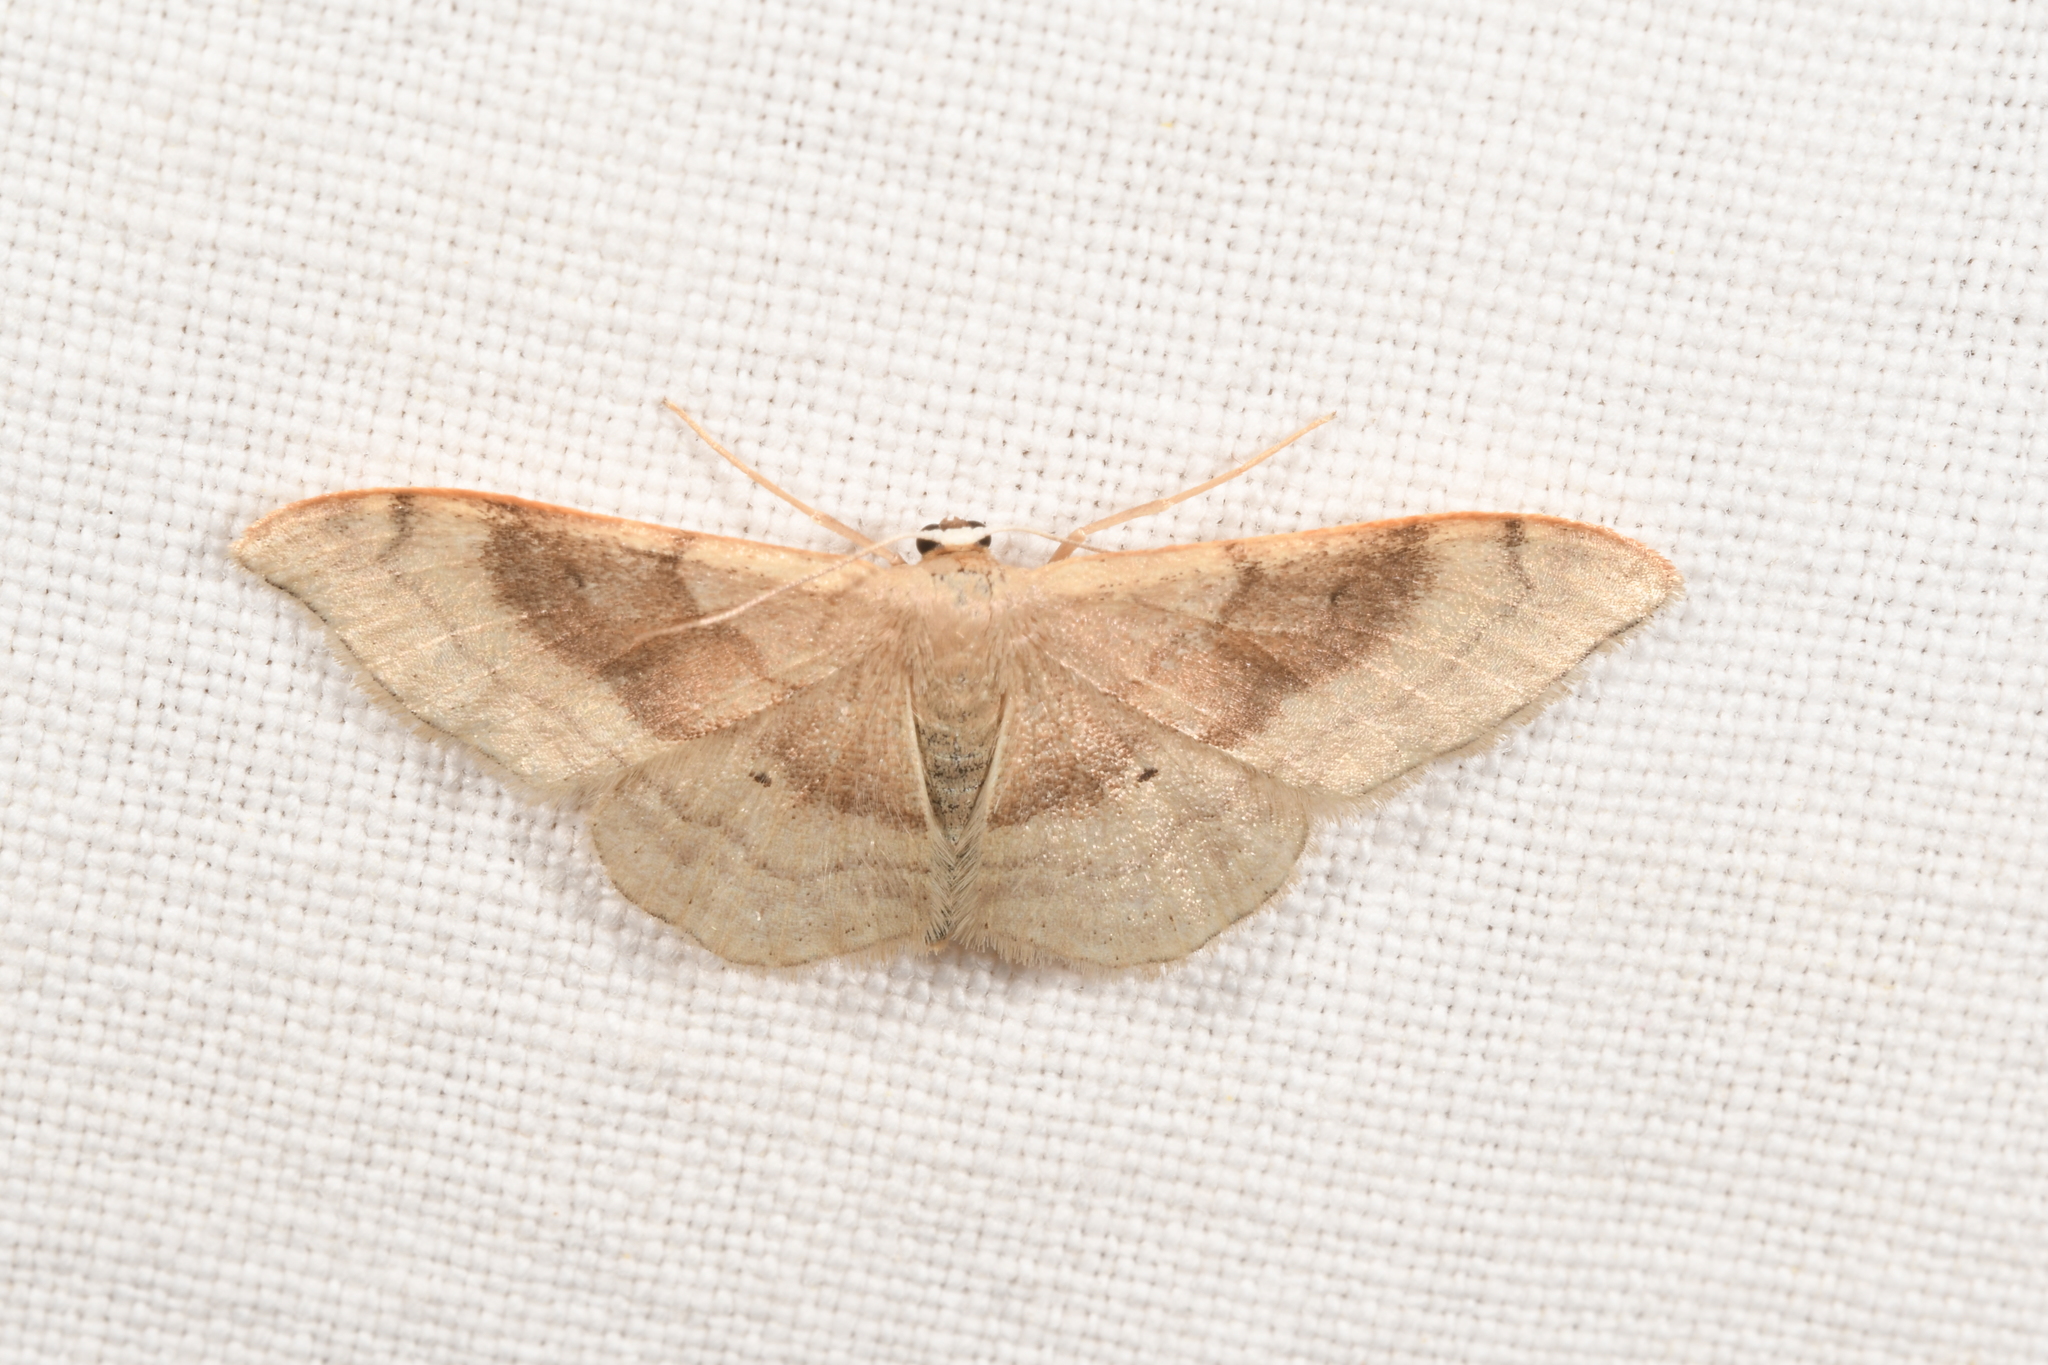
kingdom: Animalia
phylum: Arthropoda
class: Insecta
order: Lepidoptera
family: Geometridae
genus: Idaea
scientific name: Idaea degeneraria
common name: Portland ribbon wave
